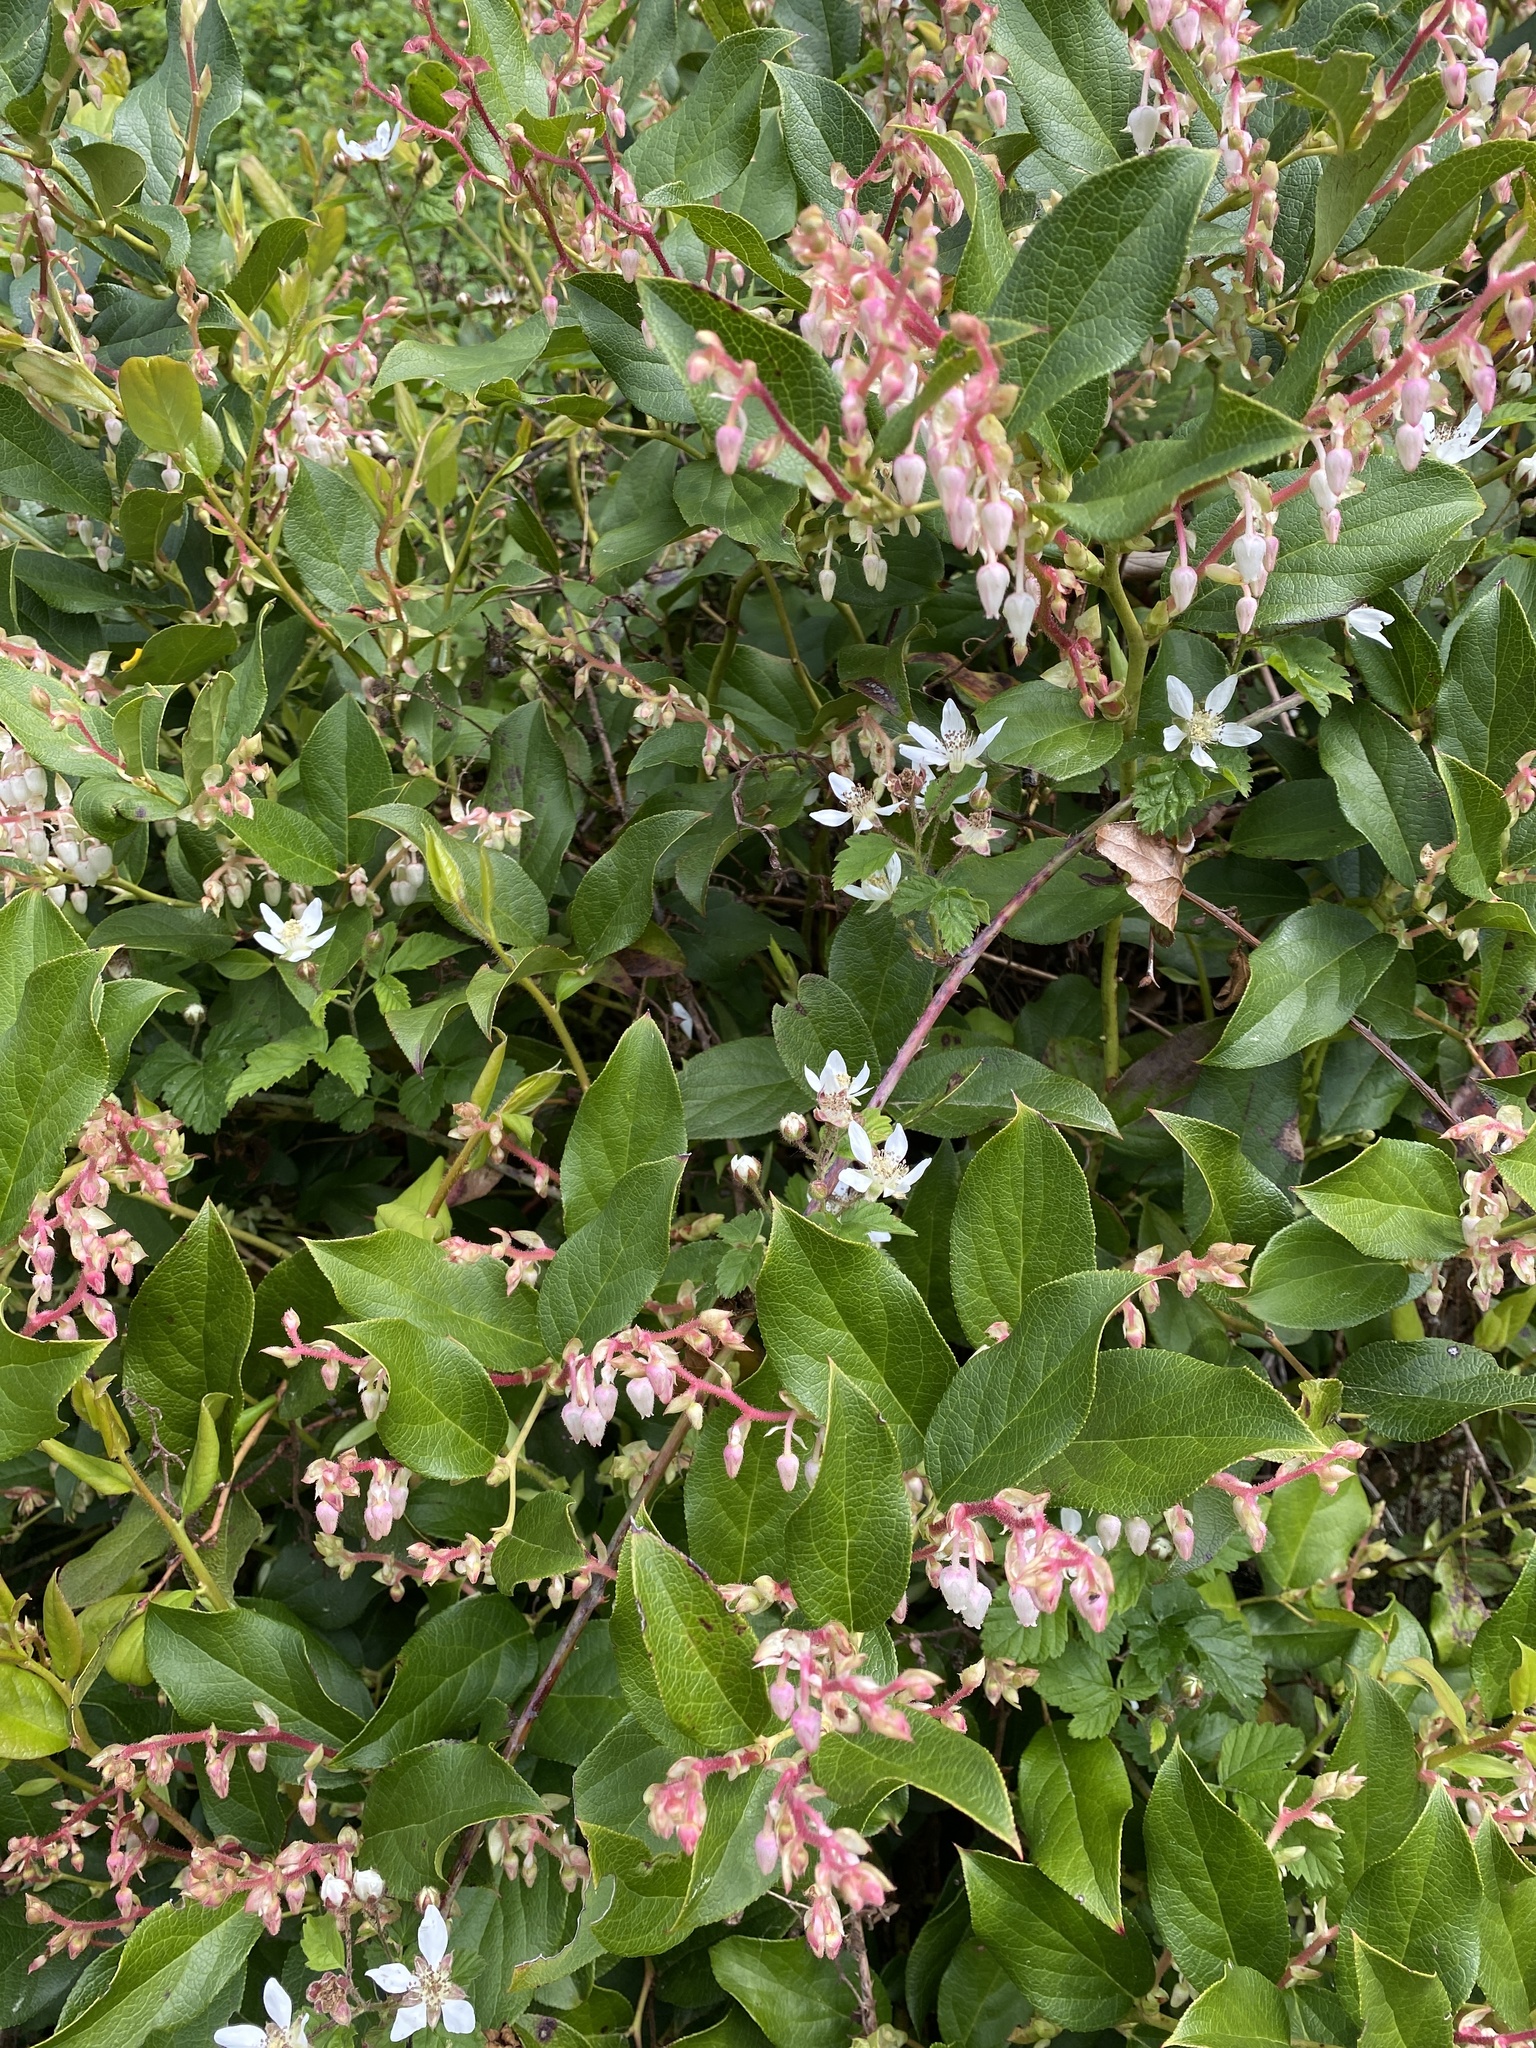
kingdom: Plantae
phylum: Tracheophyta
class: Magnoliopsida
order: Ericales
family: Ericaceae
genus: Gaultheria
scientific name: Gaultheria shallon
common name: Shallon
